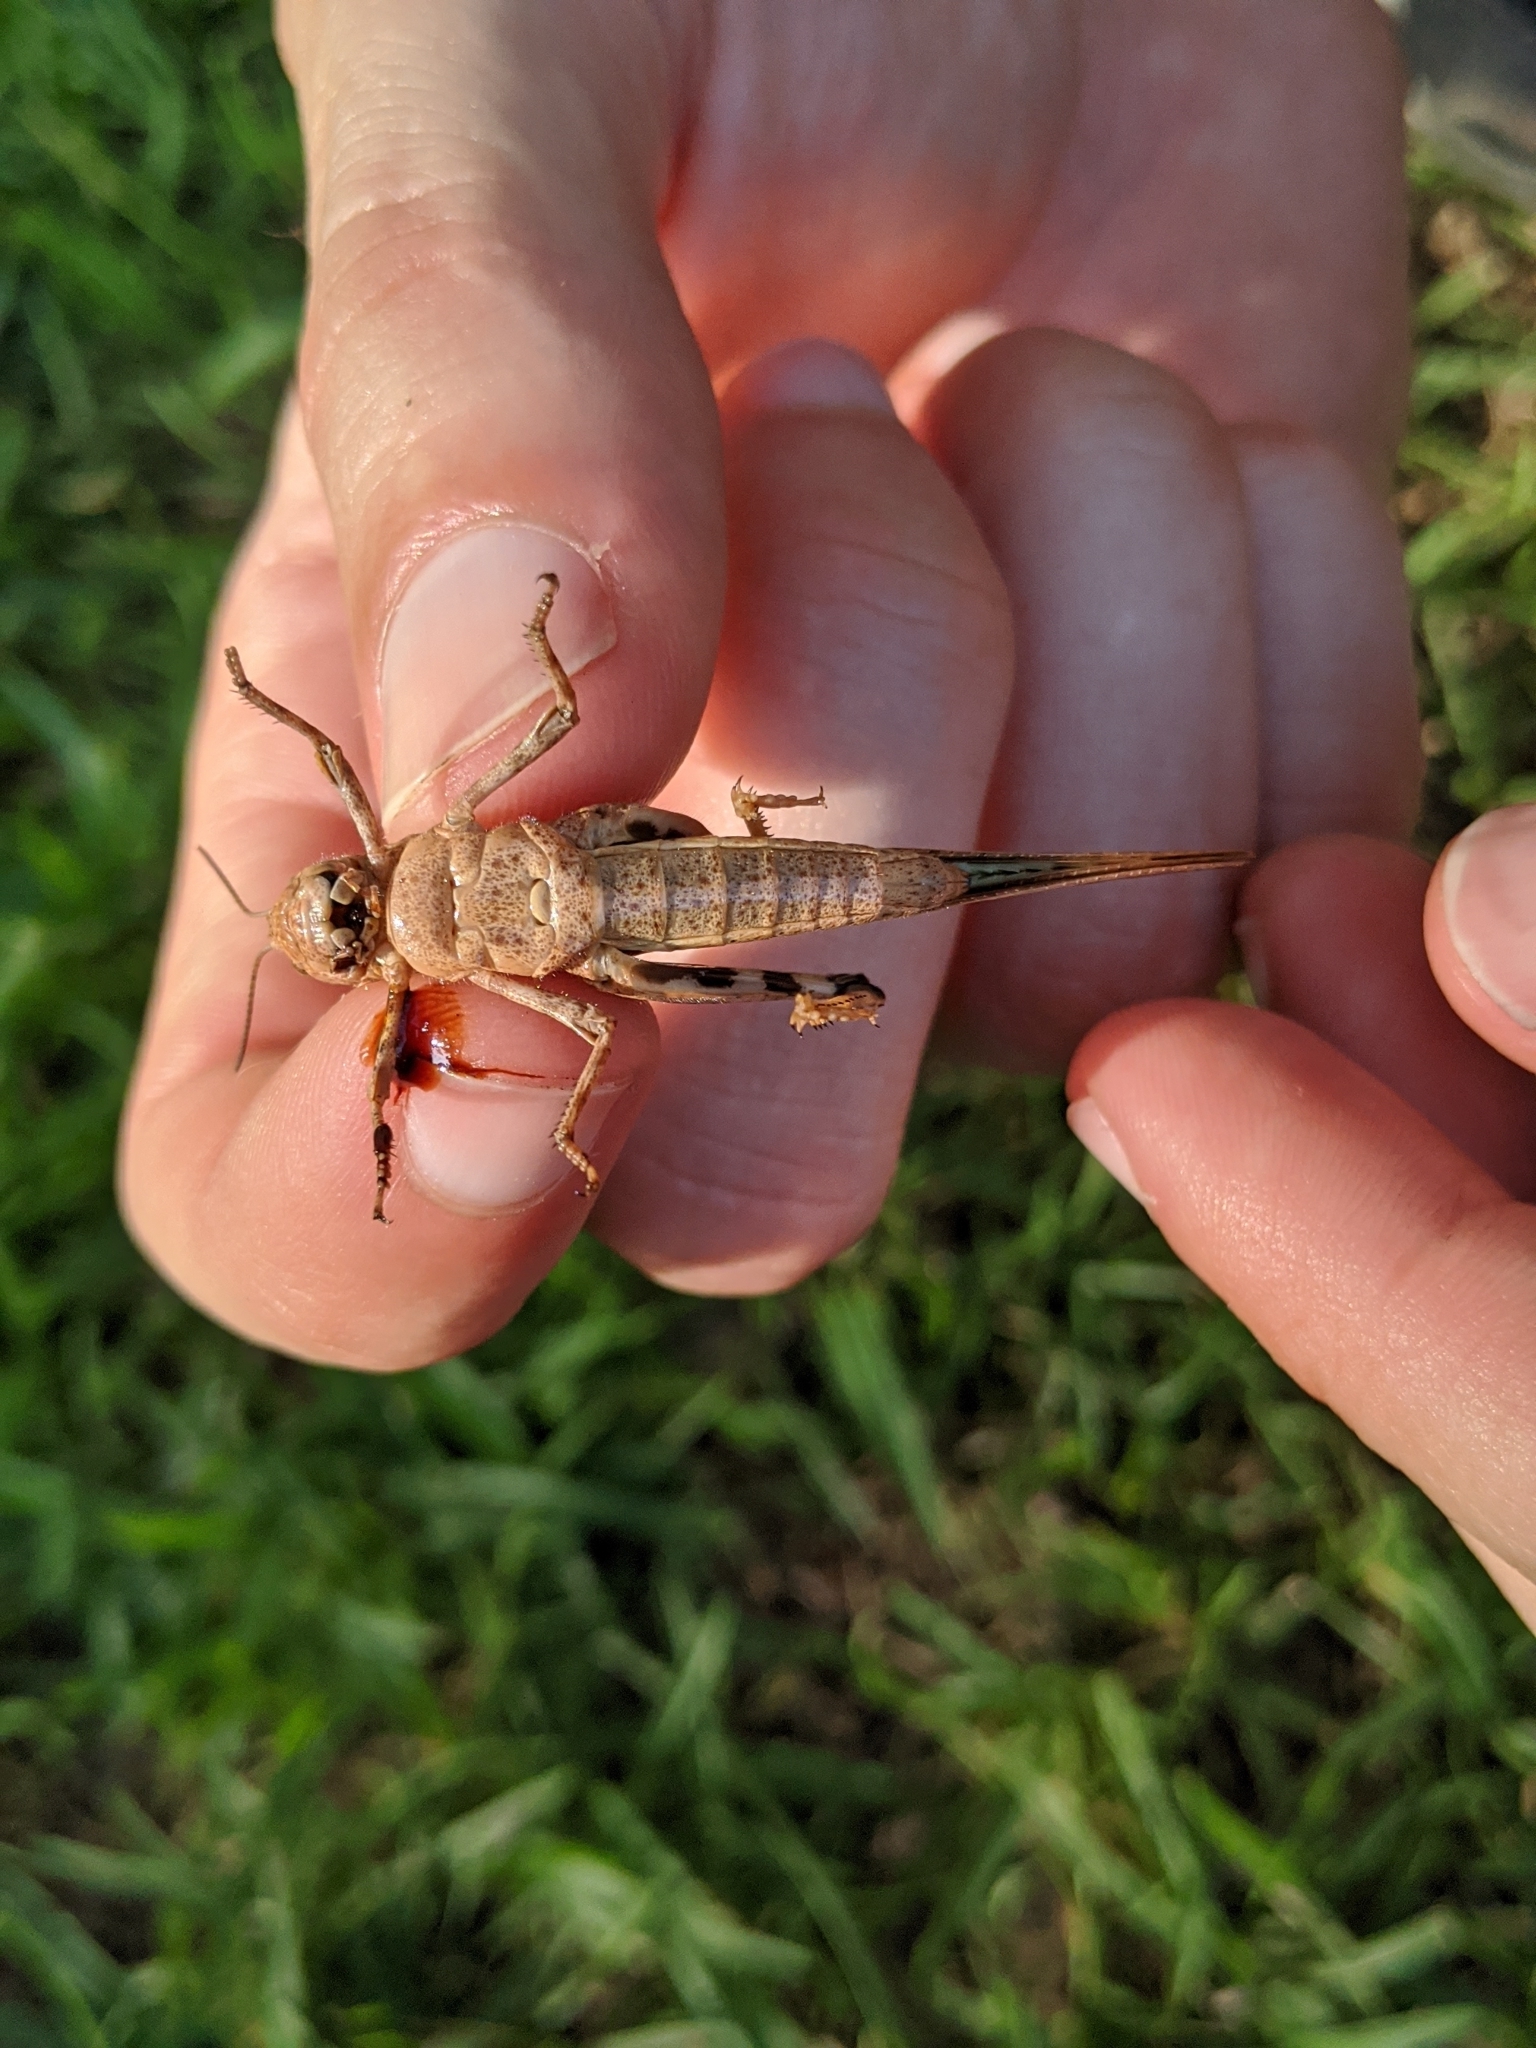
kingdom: Animalia
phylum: Arthropoda
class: Insecta
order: Orthoptera
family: Acrididae
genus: Dissosteira
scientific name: Dissosteira carolina
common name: Carolina grasshopper
